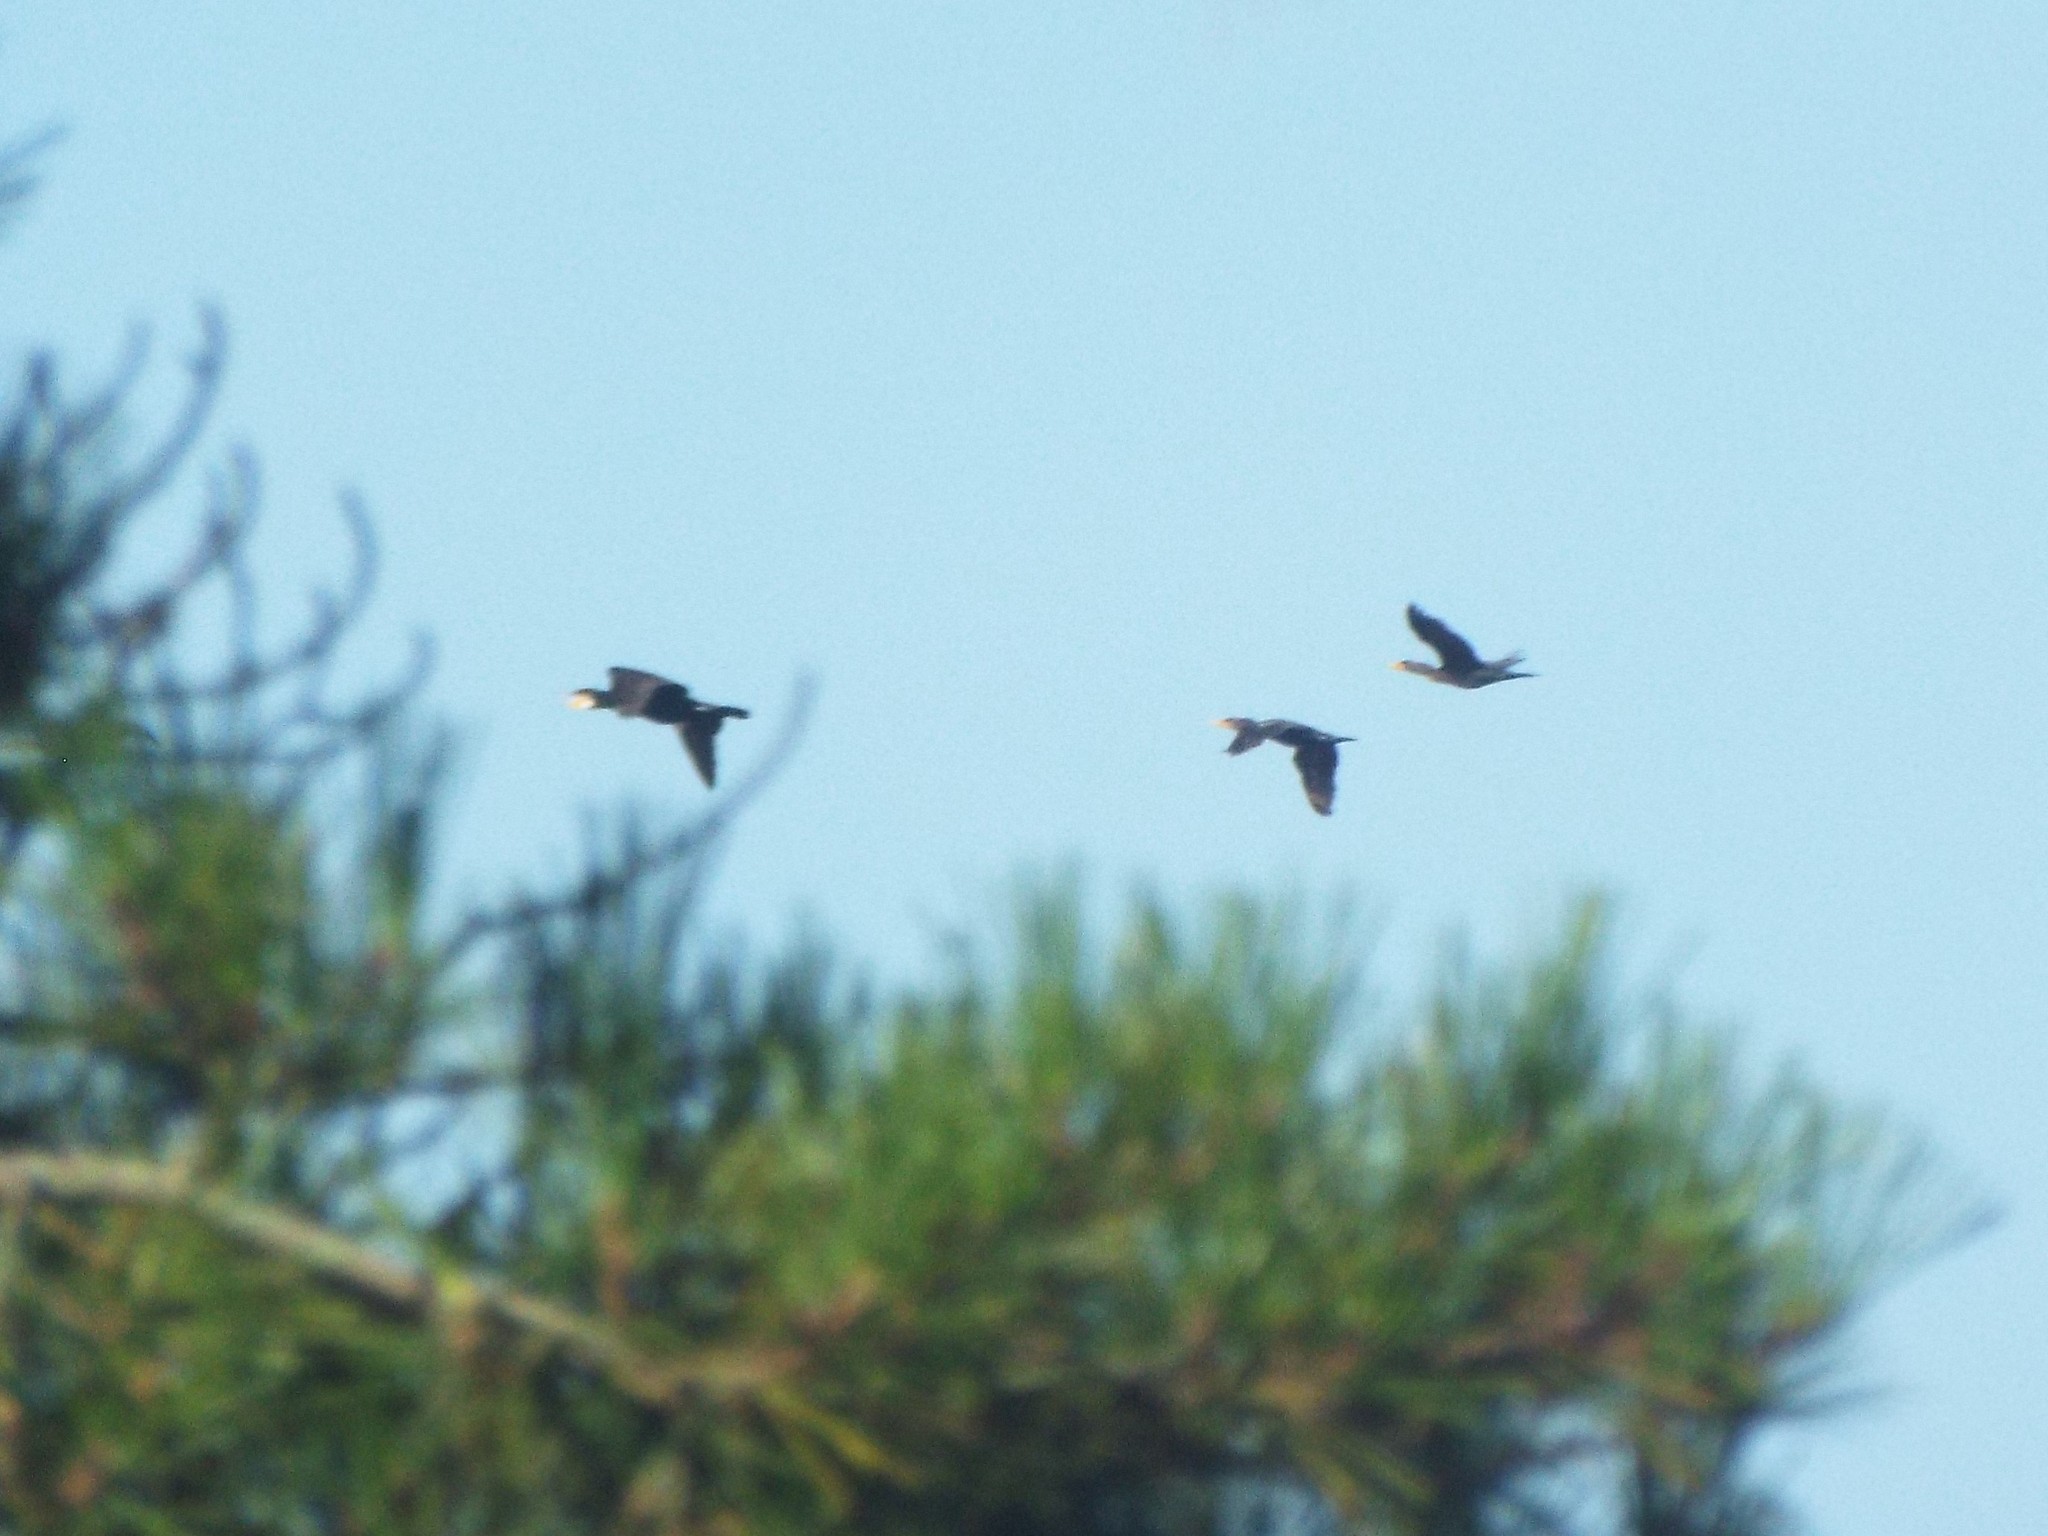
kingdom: Animalia
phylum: Chordata
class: Aves
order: Suliformes
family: Phalacrocoracidae
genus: Phalacrocorax
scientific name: Phalacrocorax carbo
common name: Great cormorant
